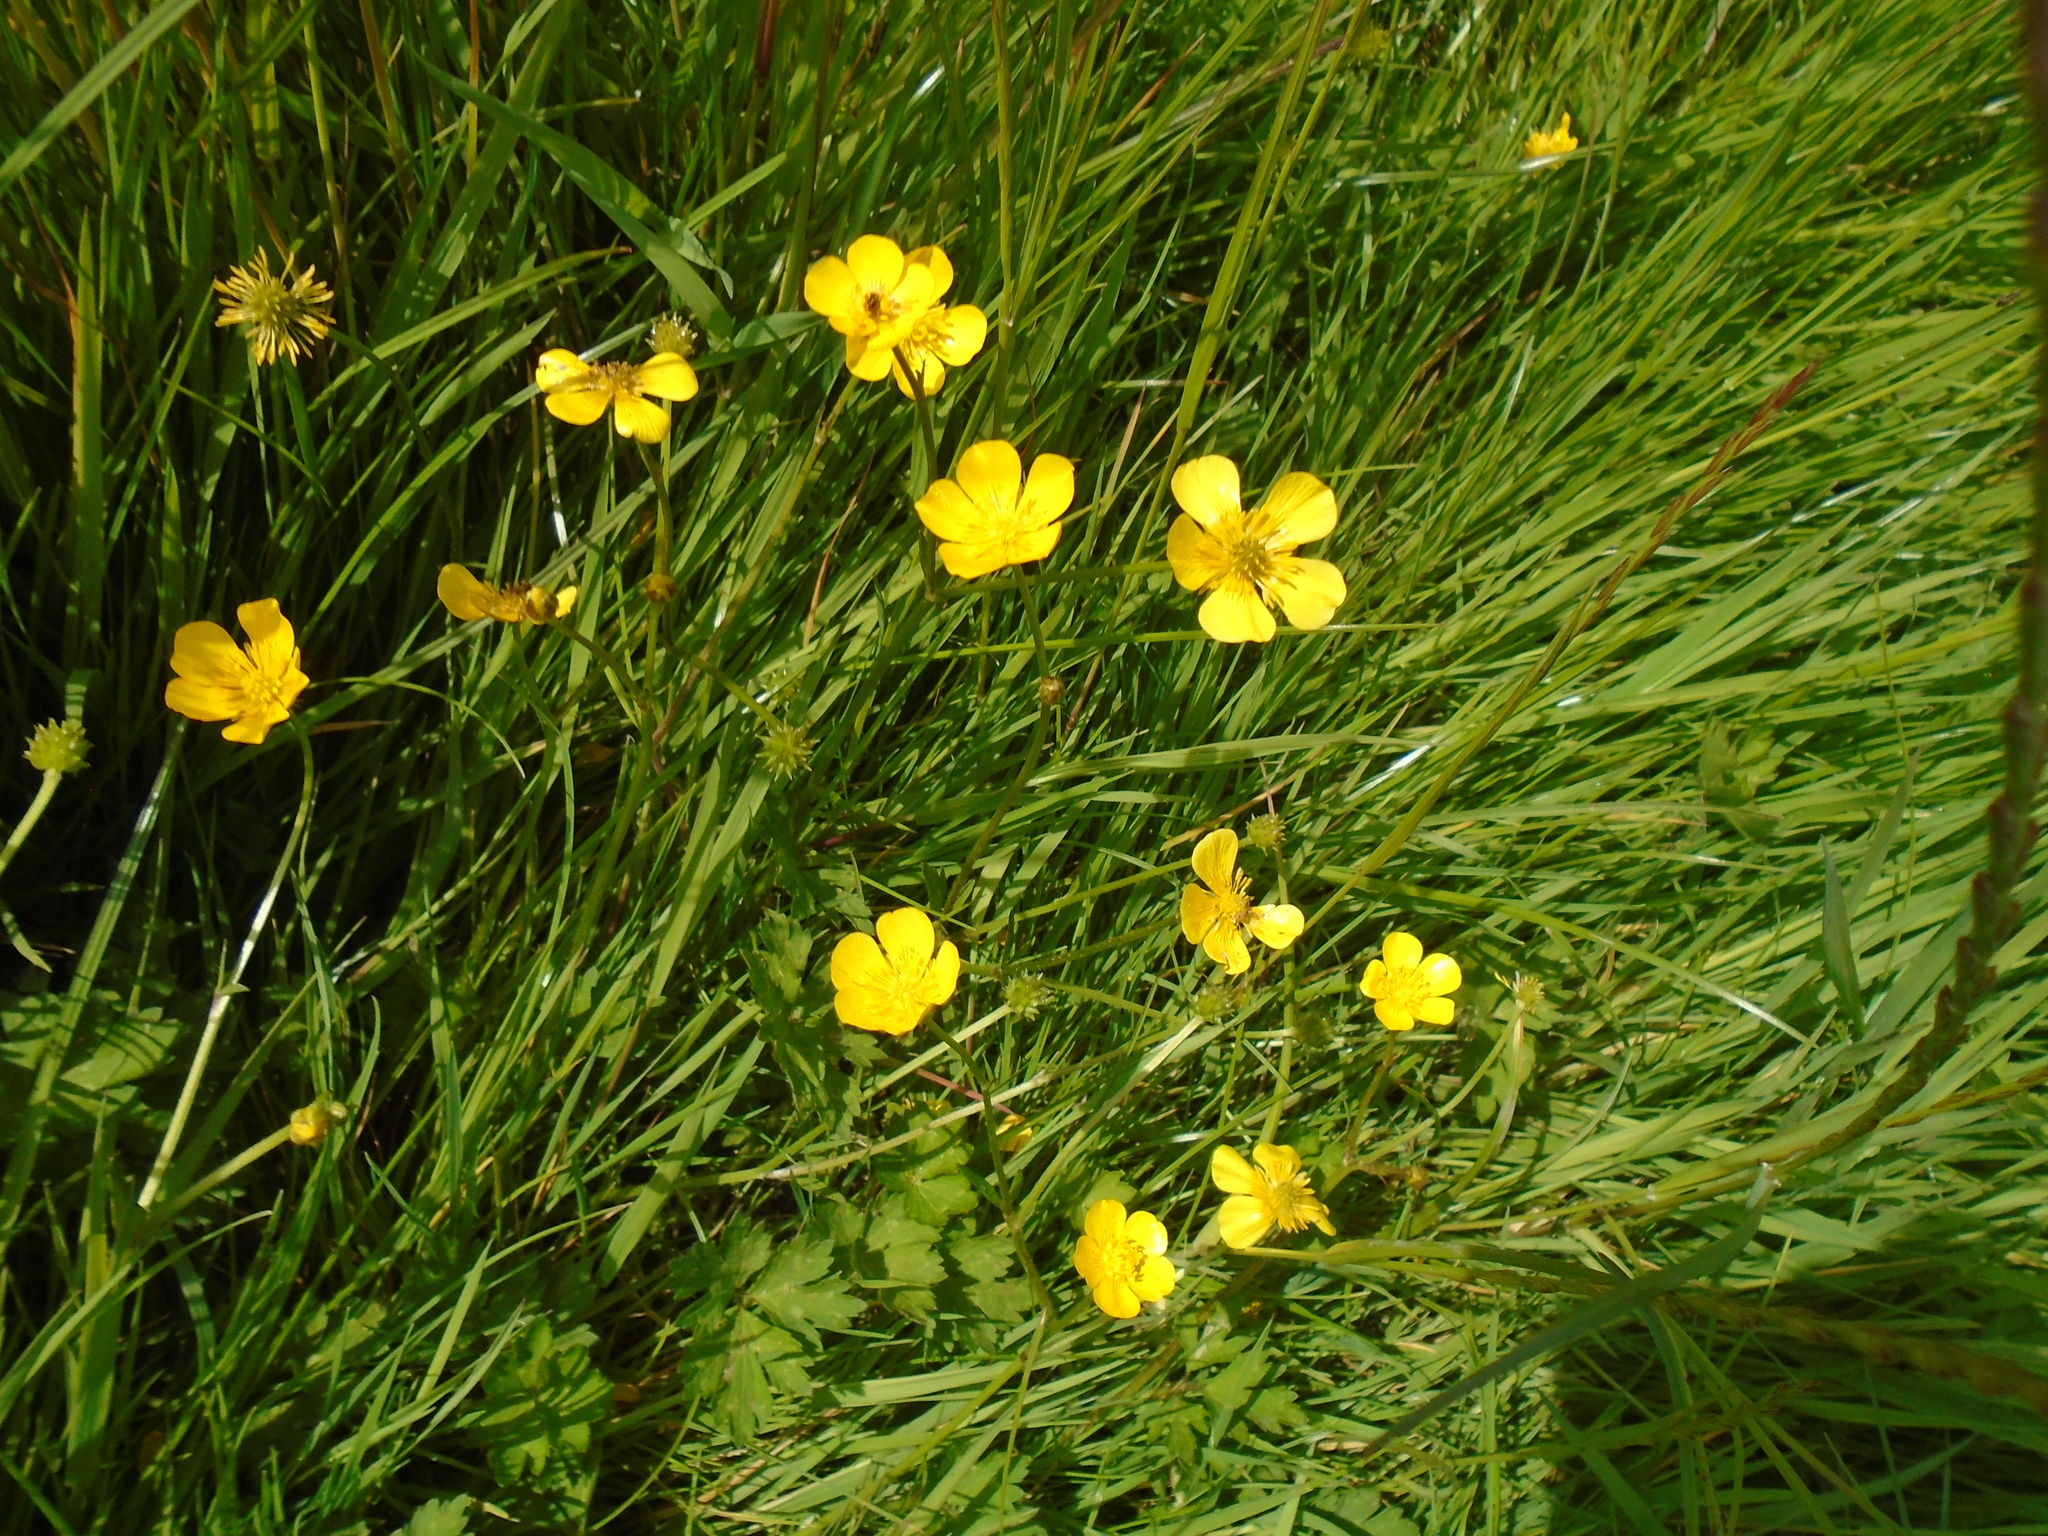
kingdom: Plantae
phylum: Tracheophyta
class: Magnoliopsida
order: Ranunculales
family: Ranunculaceae
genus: Ranunculus
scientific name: Ranunculus repens
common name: Creeping buttercup
